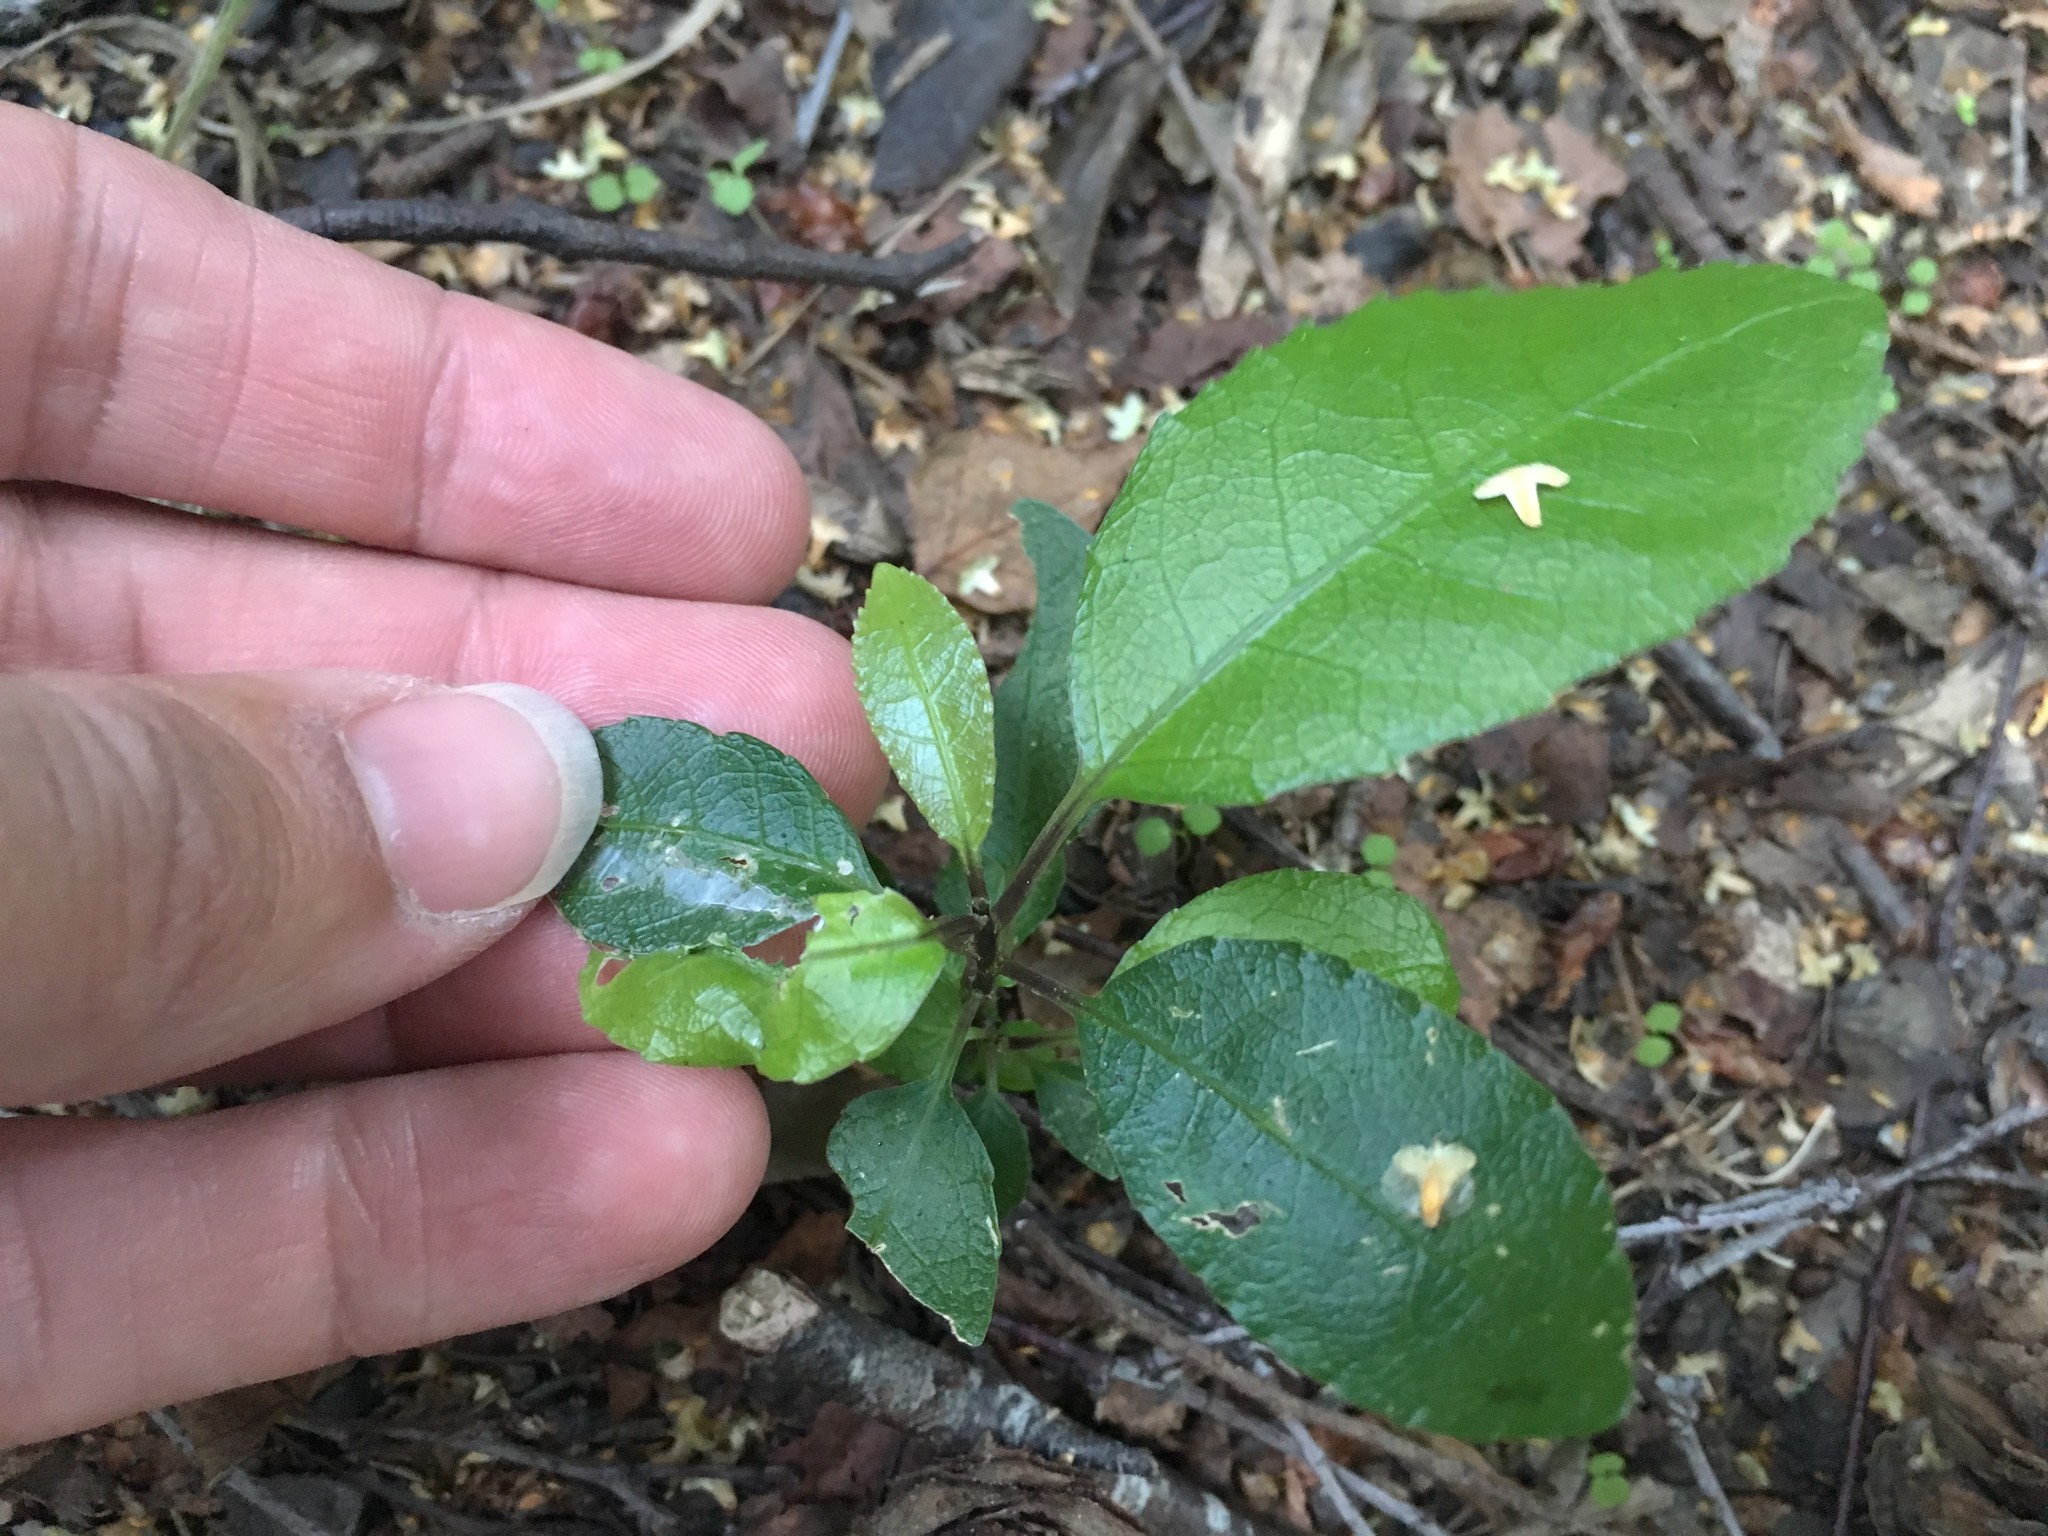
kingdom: Plantae
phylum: Tracheophyta
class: Magnoliopsida
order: Malpighiales
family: Violaceae
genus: Melicytus
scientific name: Melicytus ramiflorus
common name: Mahoe
